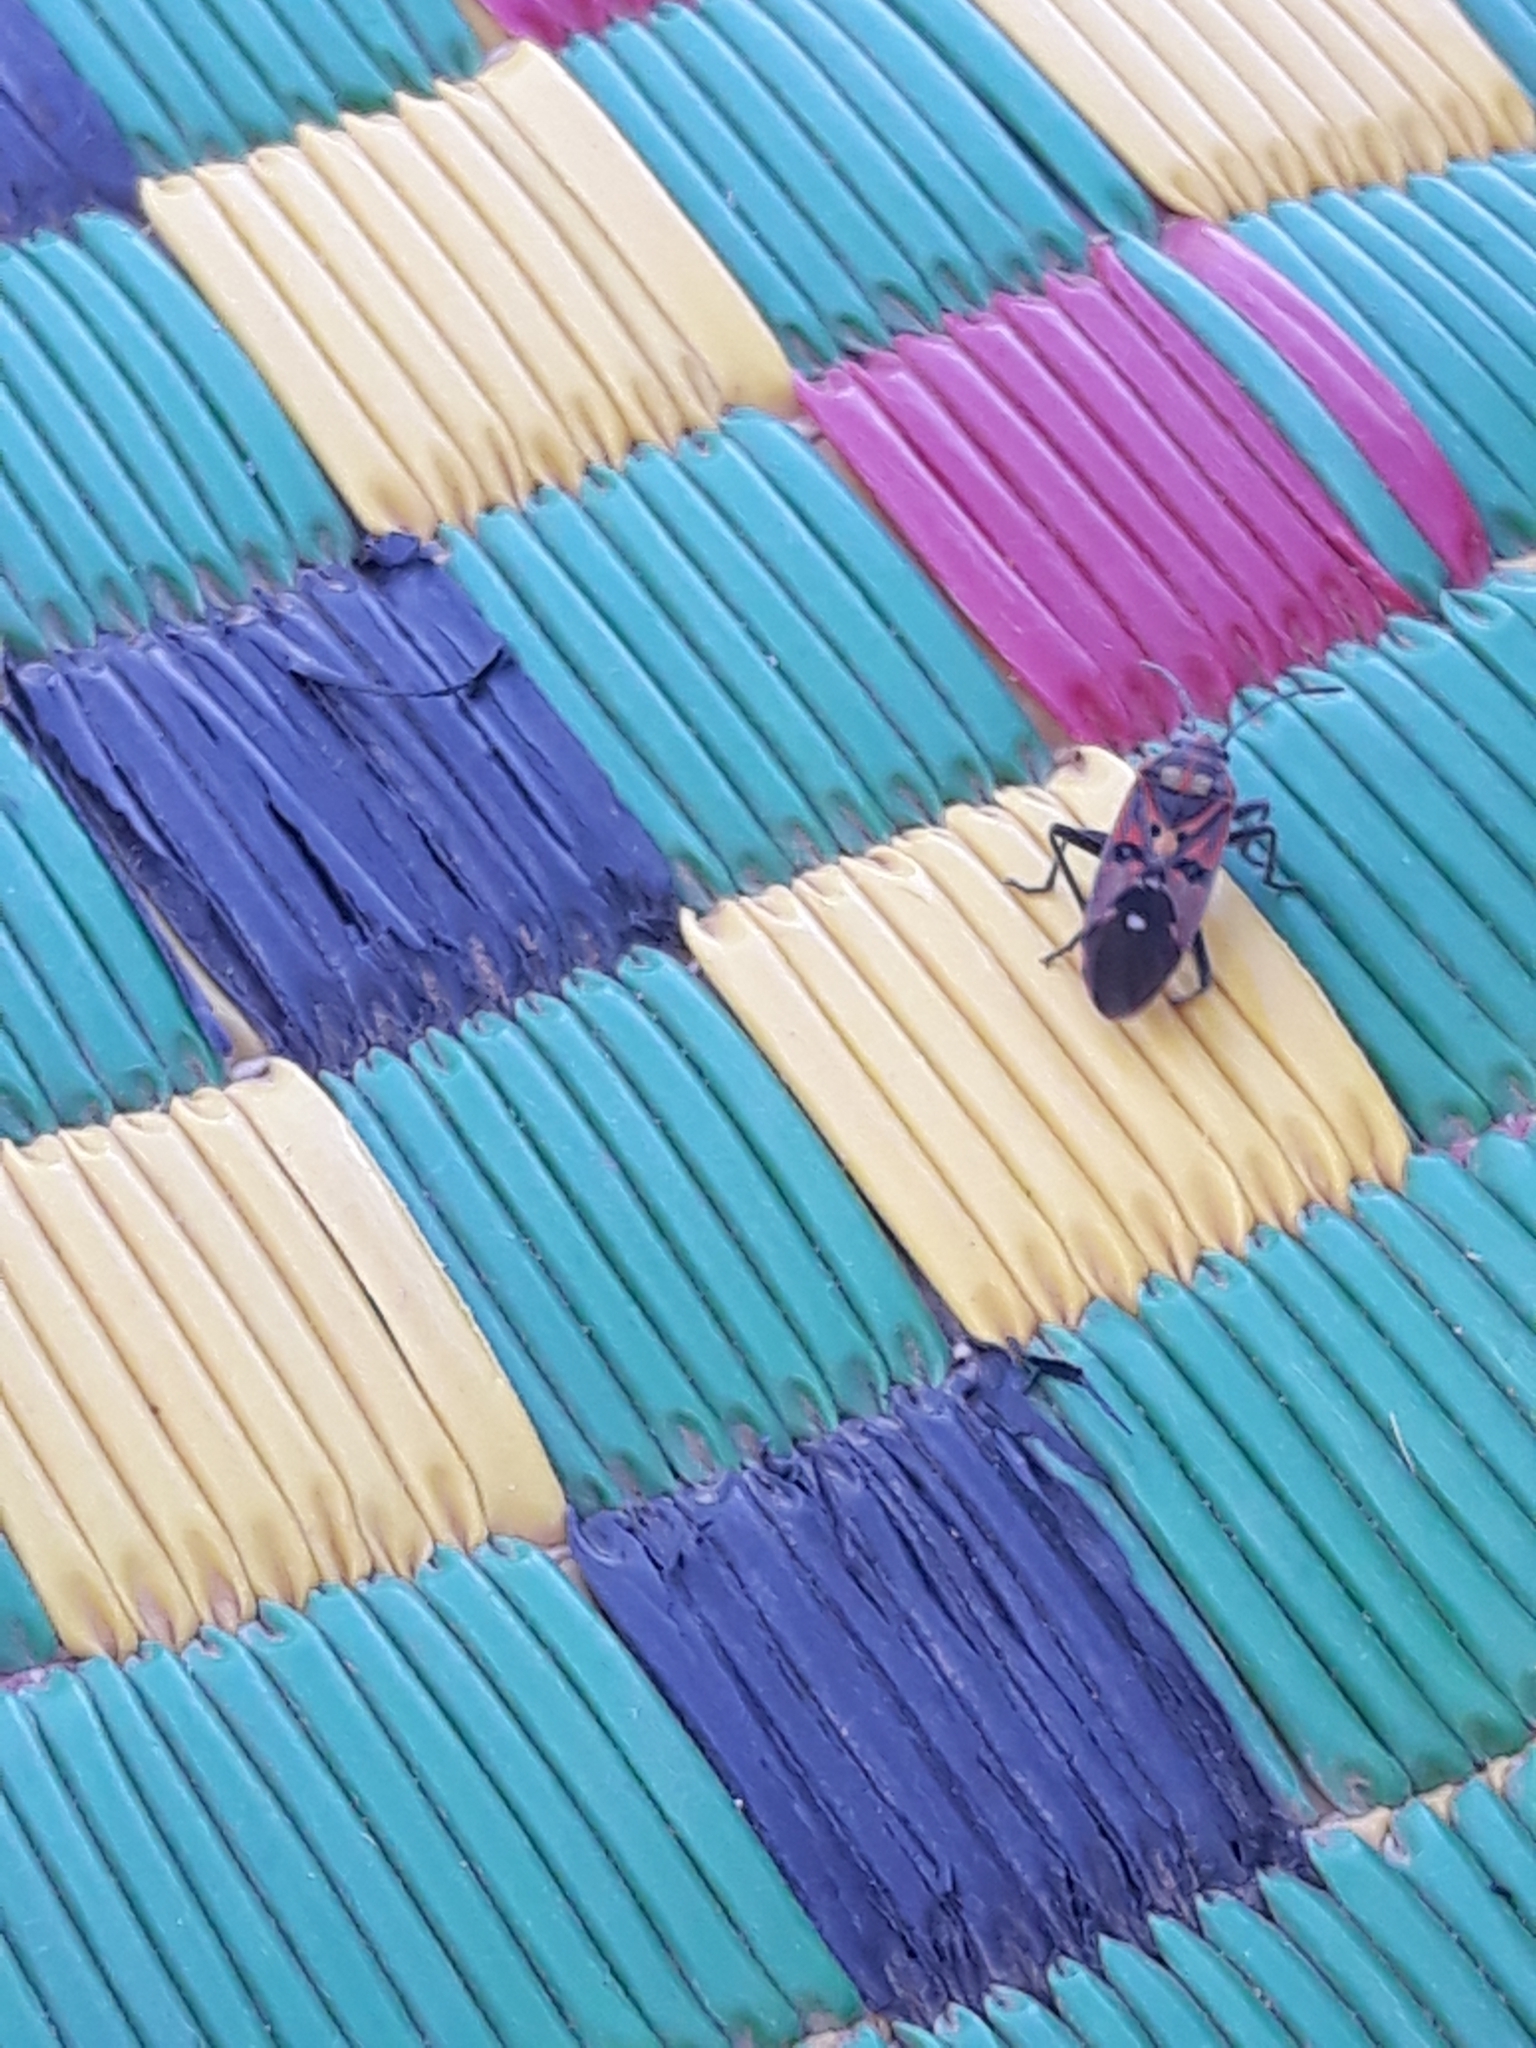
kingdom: Animalia
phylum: Arthropoda
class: Insecta
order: Hemiptera
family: Lygaeidae
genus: Spilostethus
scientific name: Spilostethus pandurus
